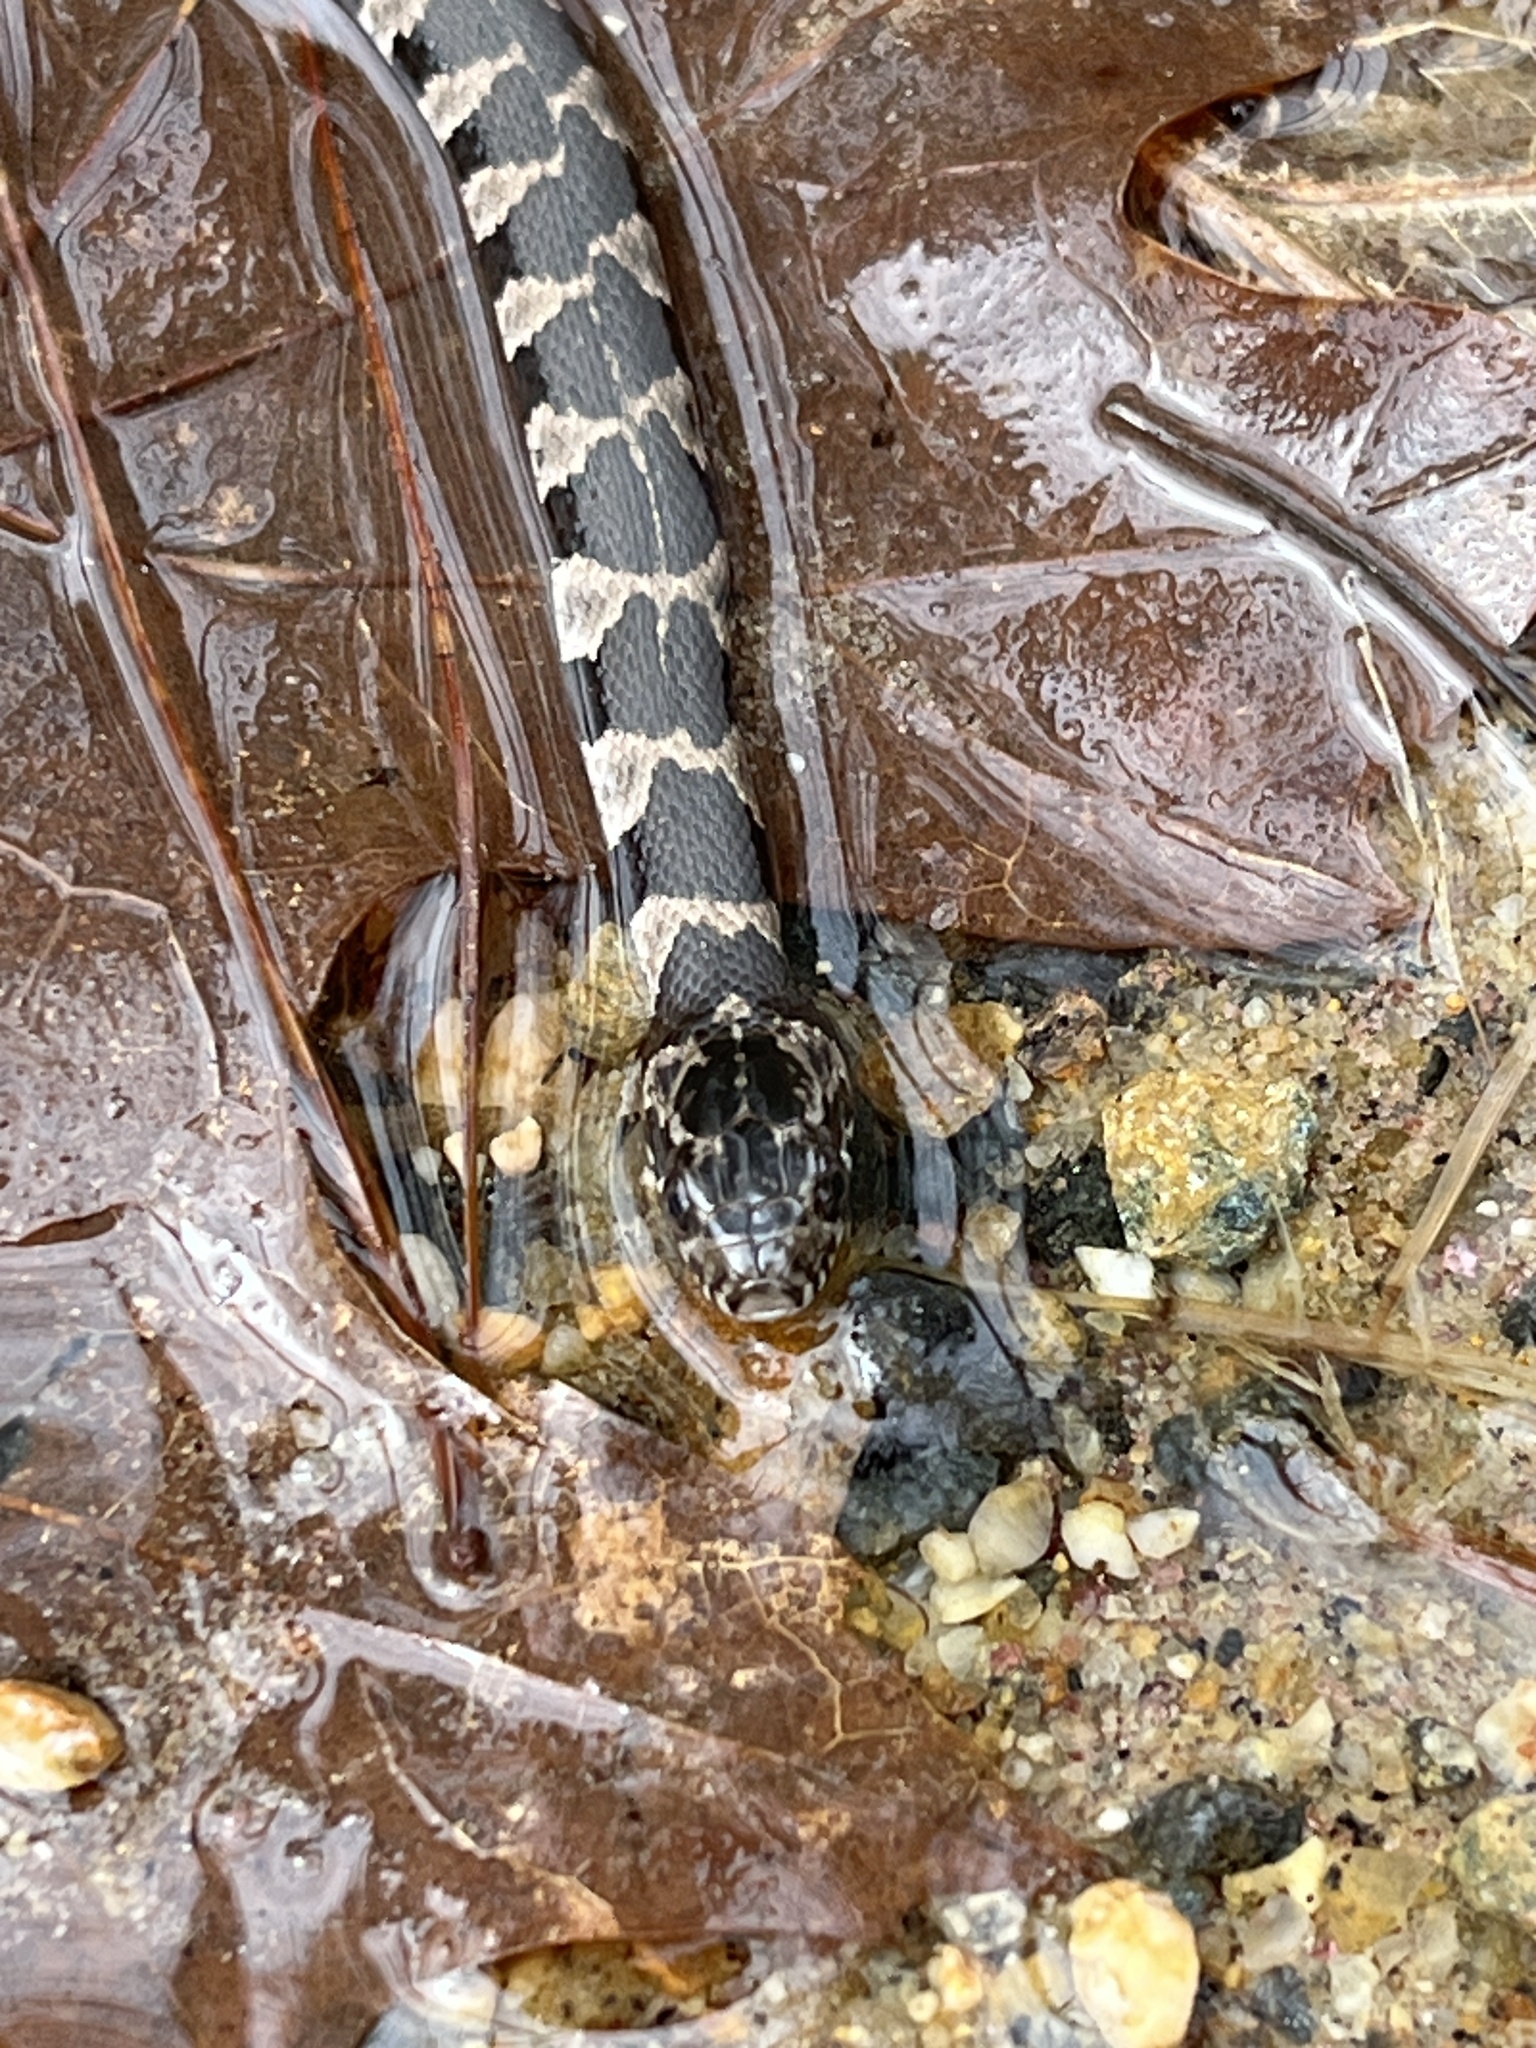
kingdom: Animalia
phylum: Chordata
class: Squamata
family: Colubridae
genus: Nerodia
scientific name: Nerodia sipedon
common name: Northern water snake
